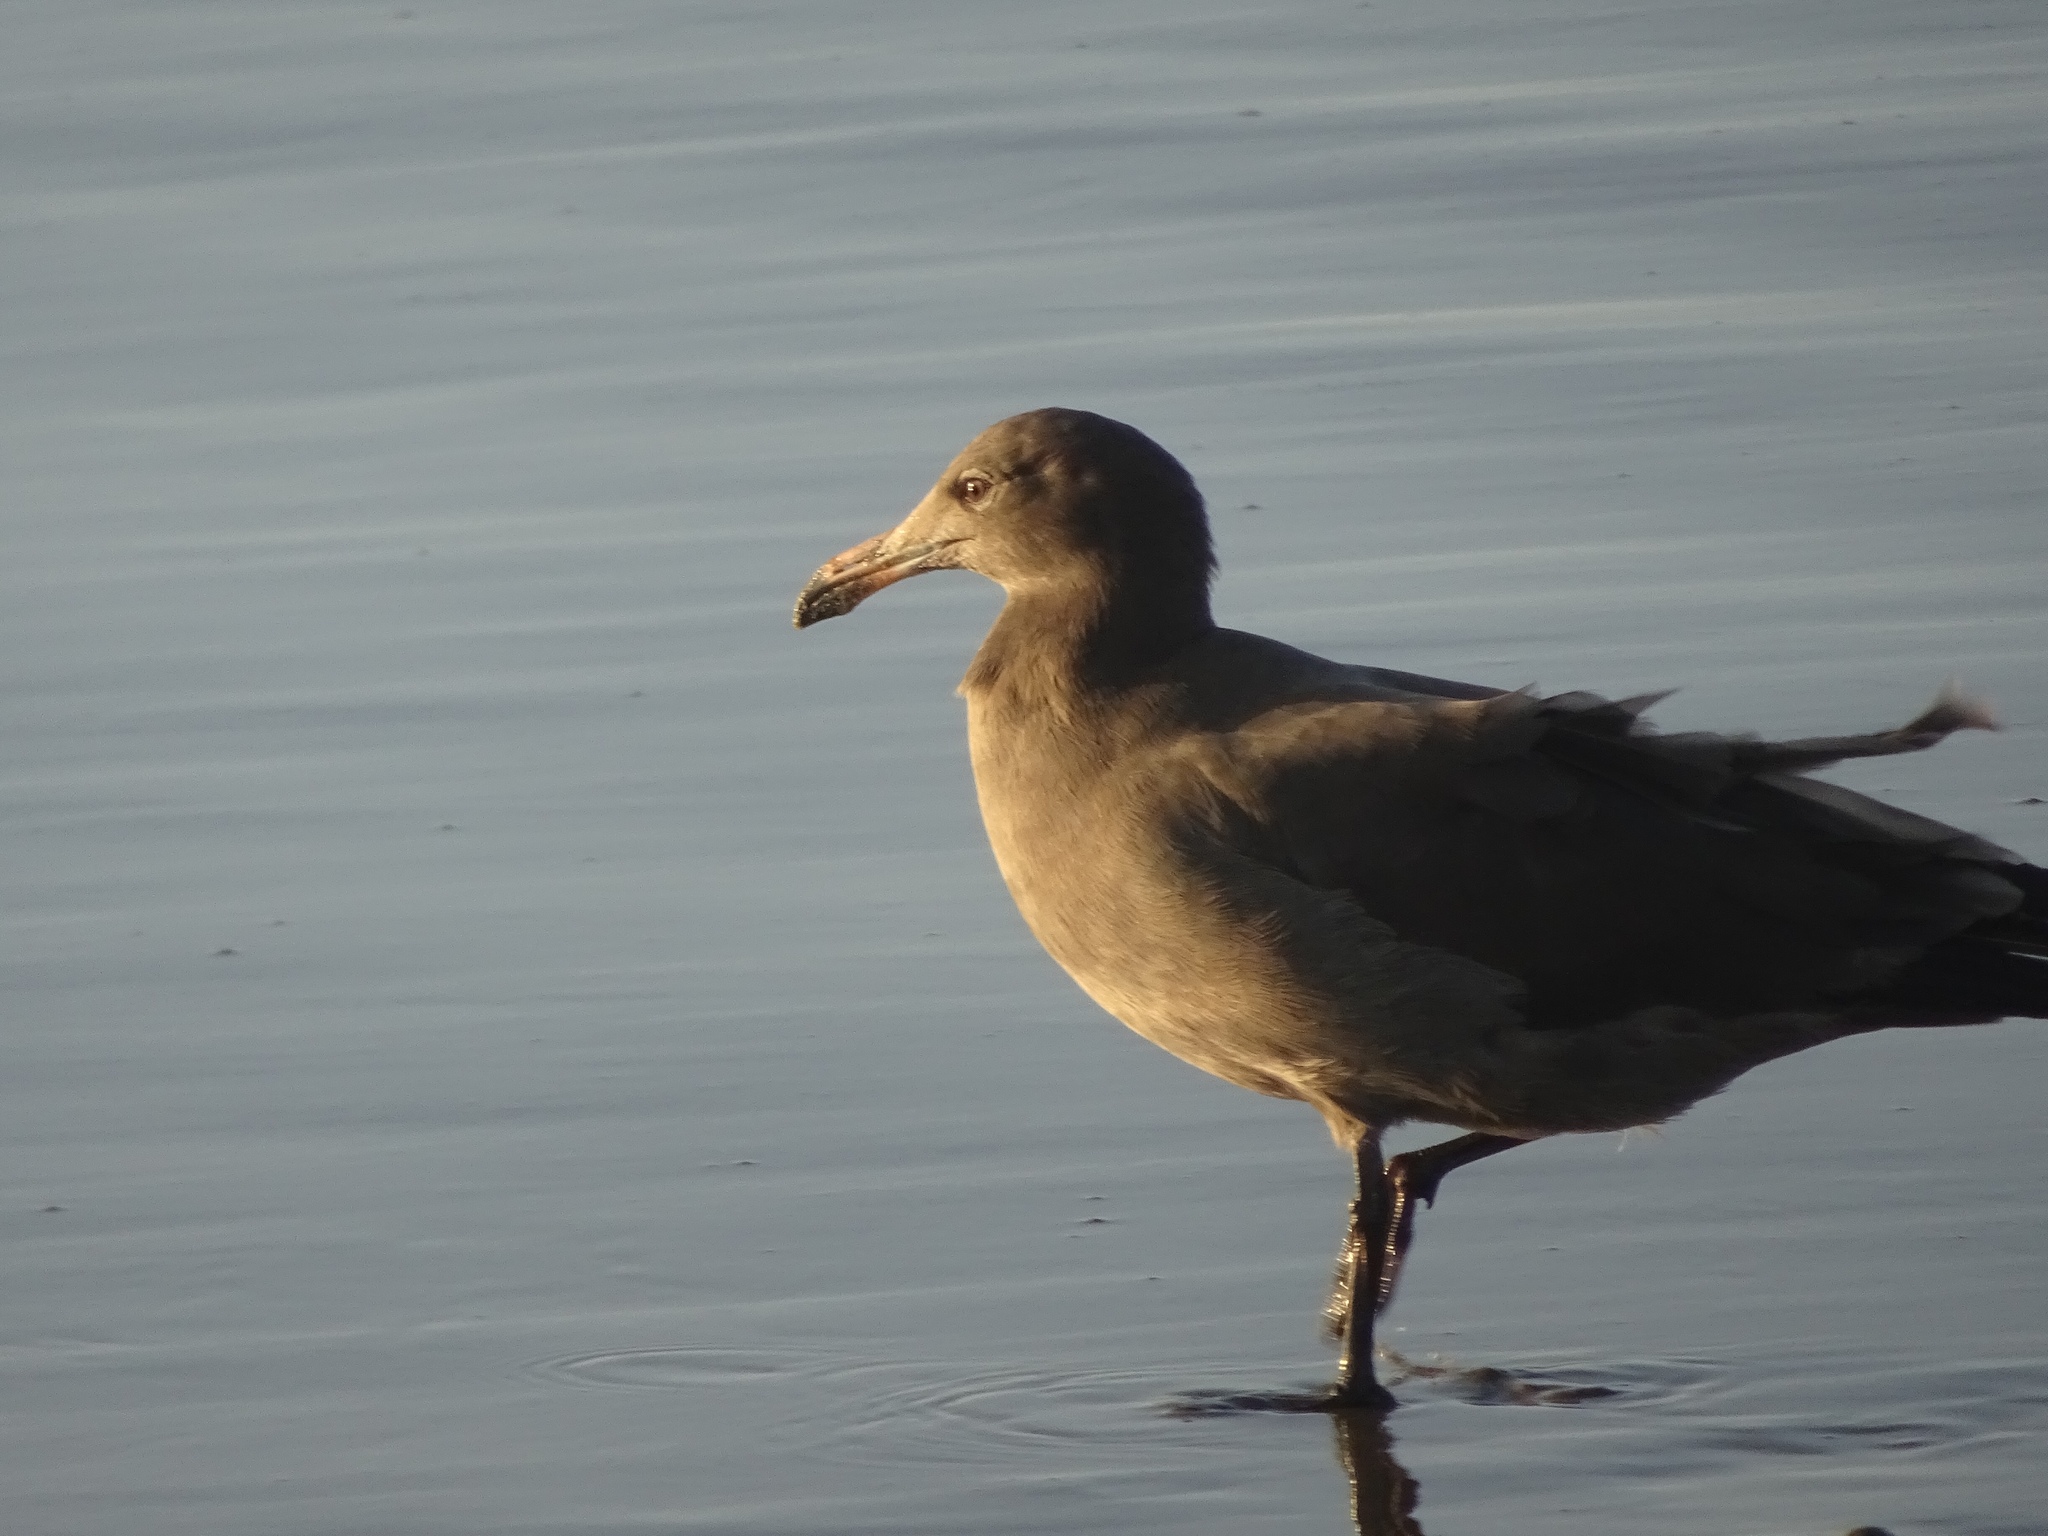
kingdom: Animalia
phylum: Chordata
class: Aves
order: Charadriiformes
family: Laridae
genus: Larus
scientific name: Larus heermanni
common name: Heermann's gull
